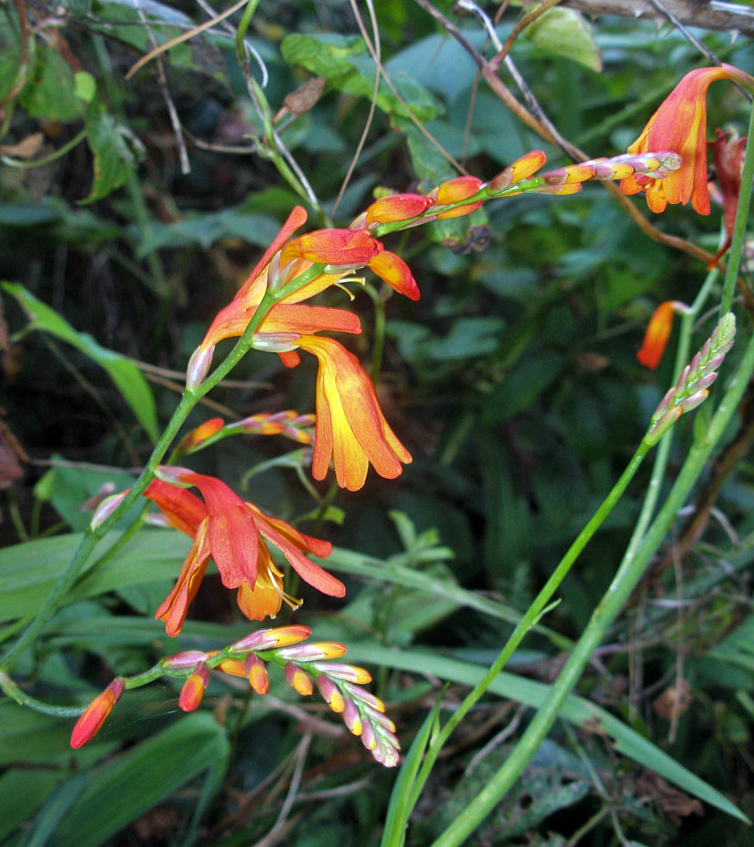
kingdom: Plantae
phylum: Tracheophyta
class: Liliopsida
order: Asparagales
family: Iridaceae
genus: Crocosmia
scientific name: Crocosmia crocosmiiflora
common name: Montbretia
